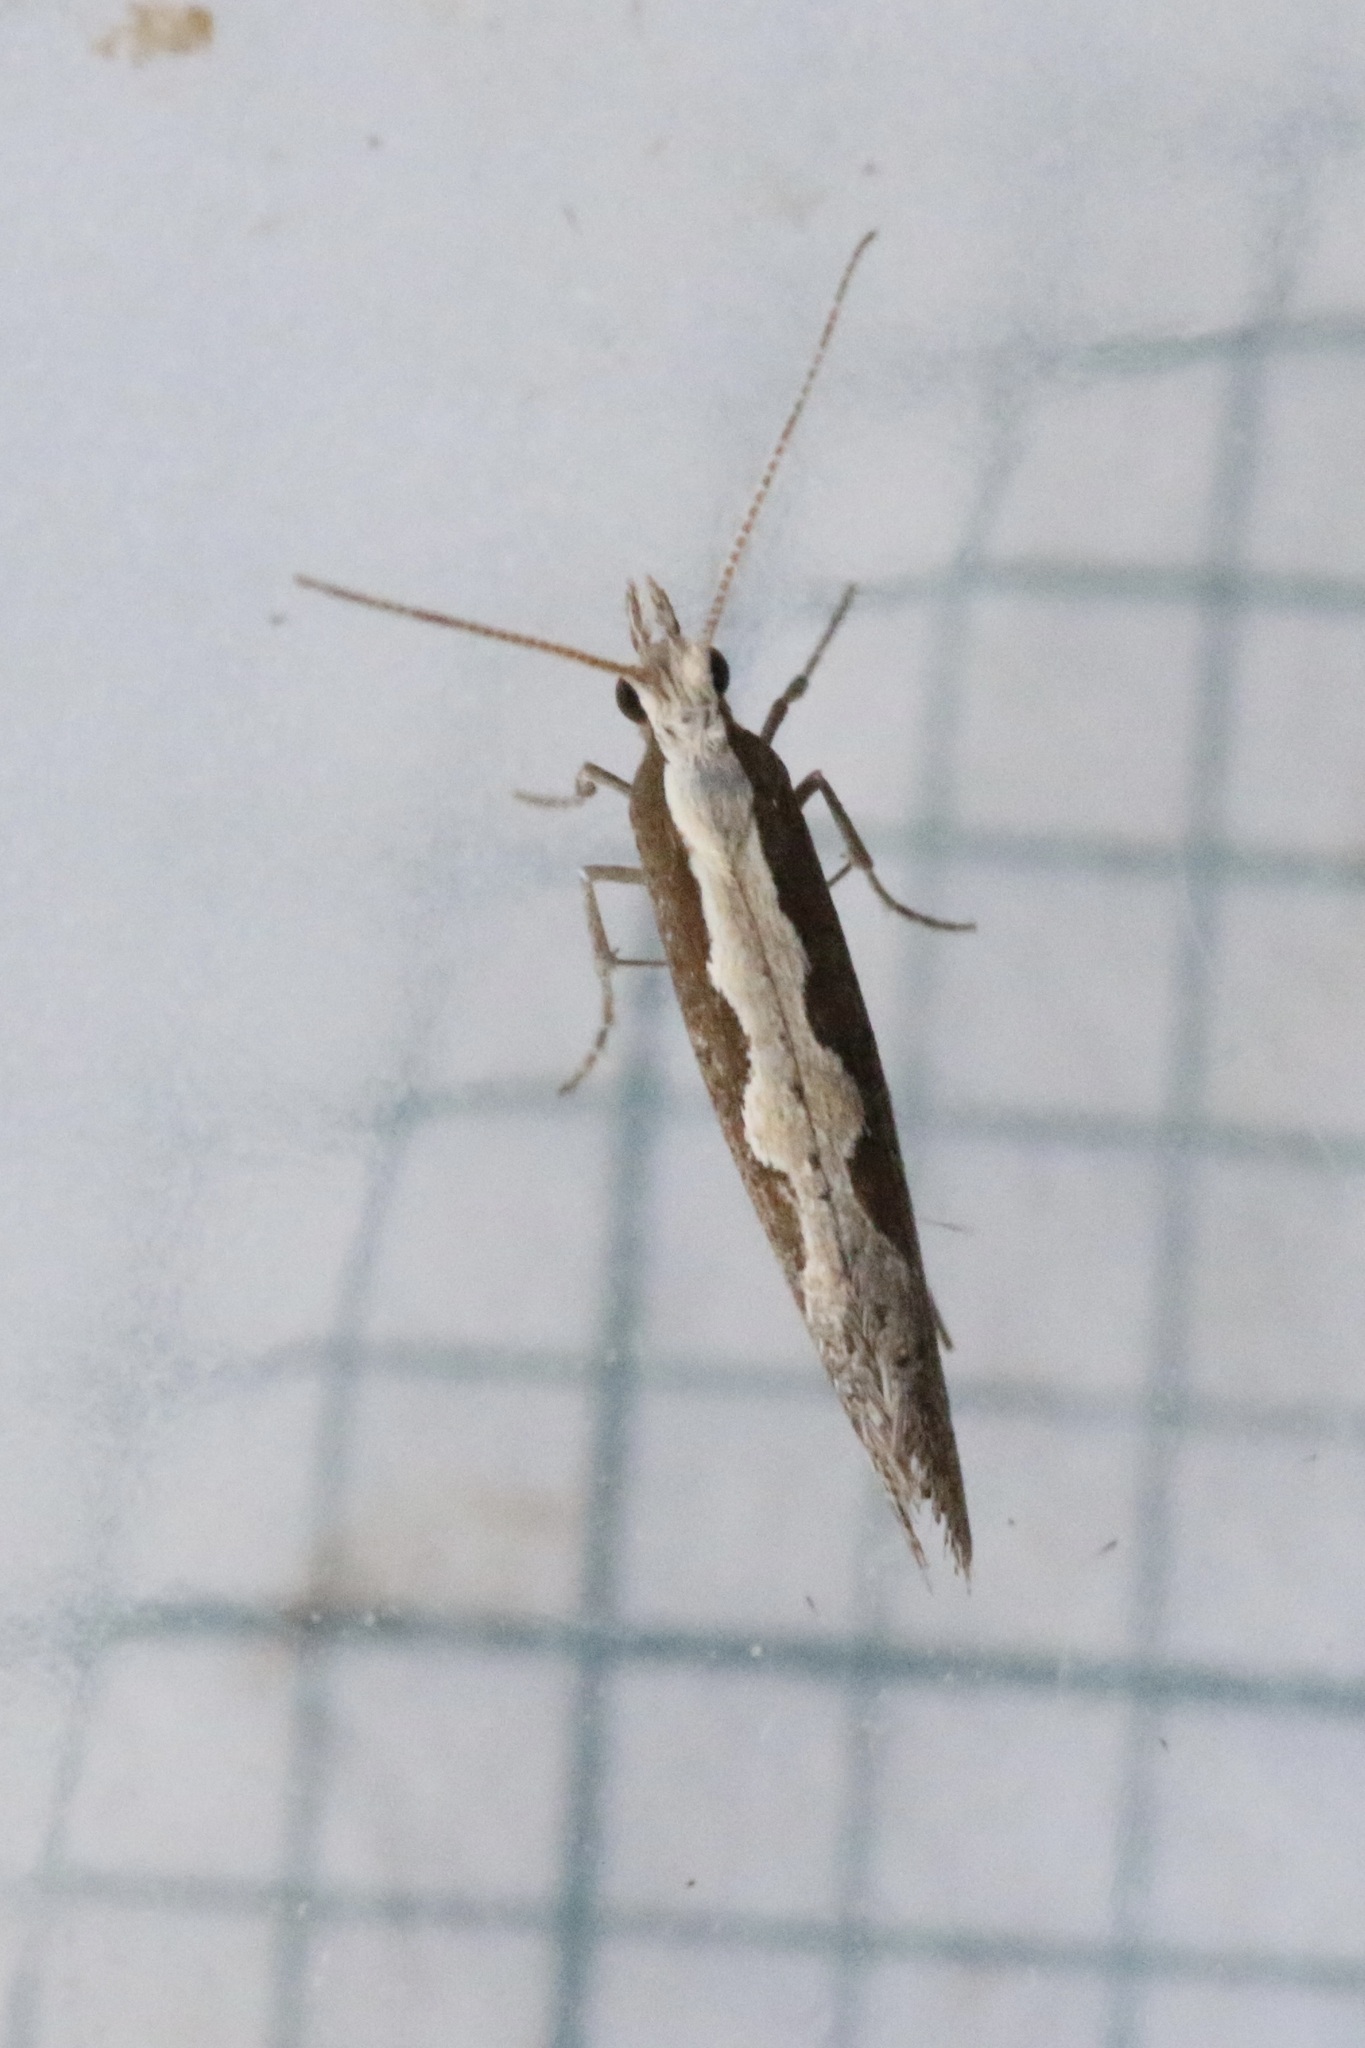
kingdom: Animalia
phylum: Arthropoda
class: Insecta
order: Lepidoptera
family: Plutellidae
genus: Plutella
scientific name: Plutella xylostella
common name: Diamond-back moth
